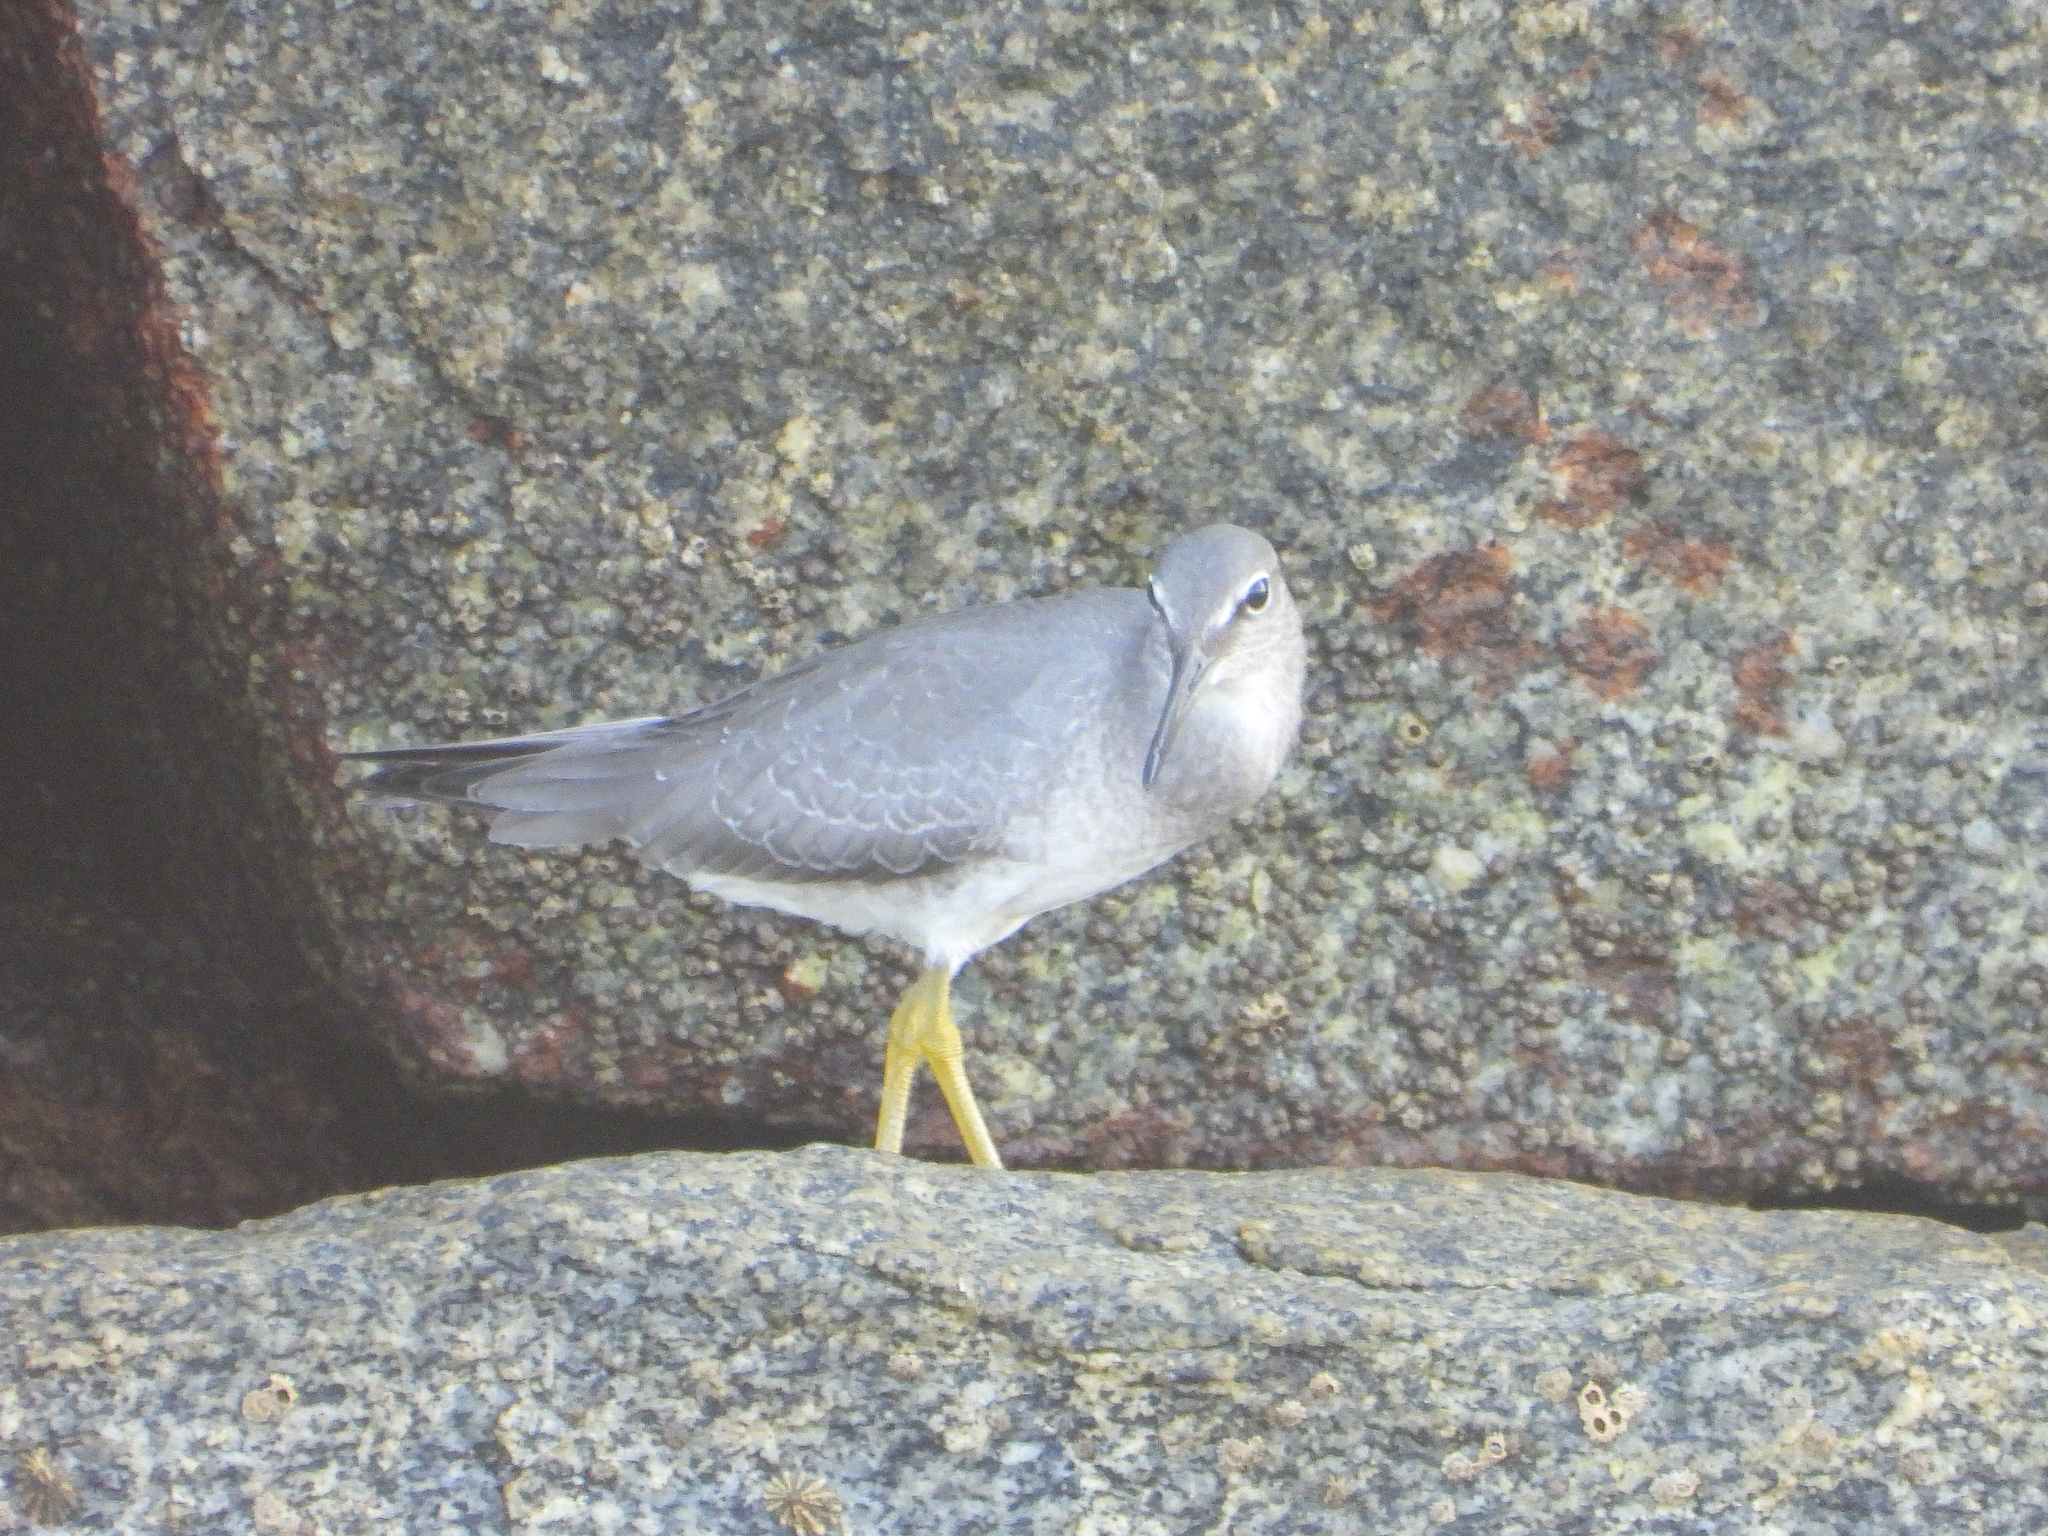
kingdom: Animalia
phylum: Chordata
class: Aves
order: Charadriiformes
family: Scolopacidae
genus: Tringa
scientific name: Tringa incana
